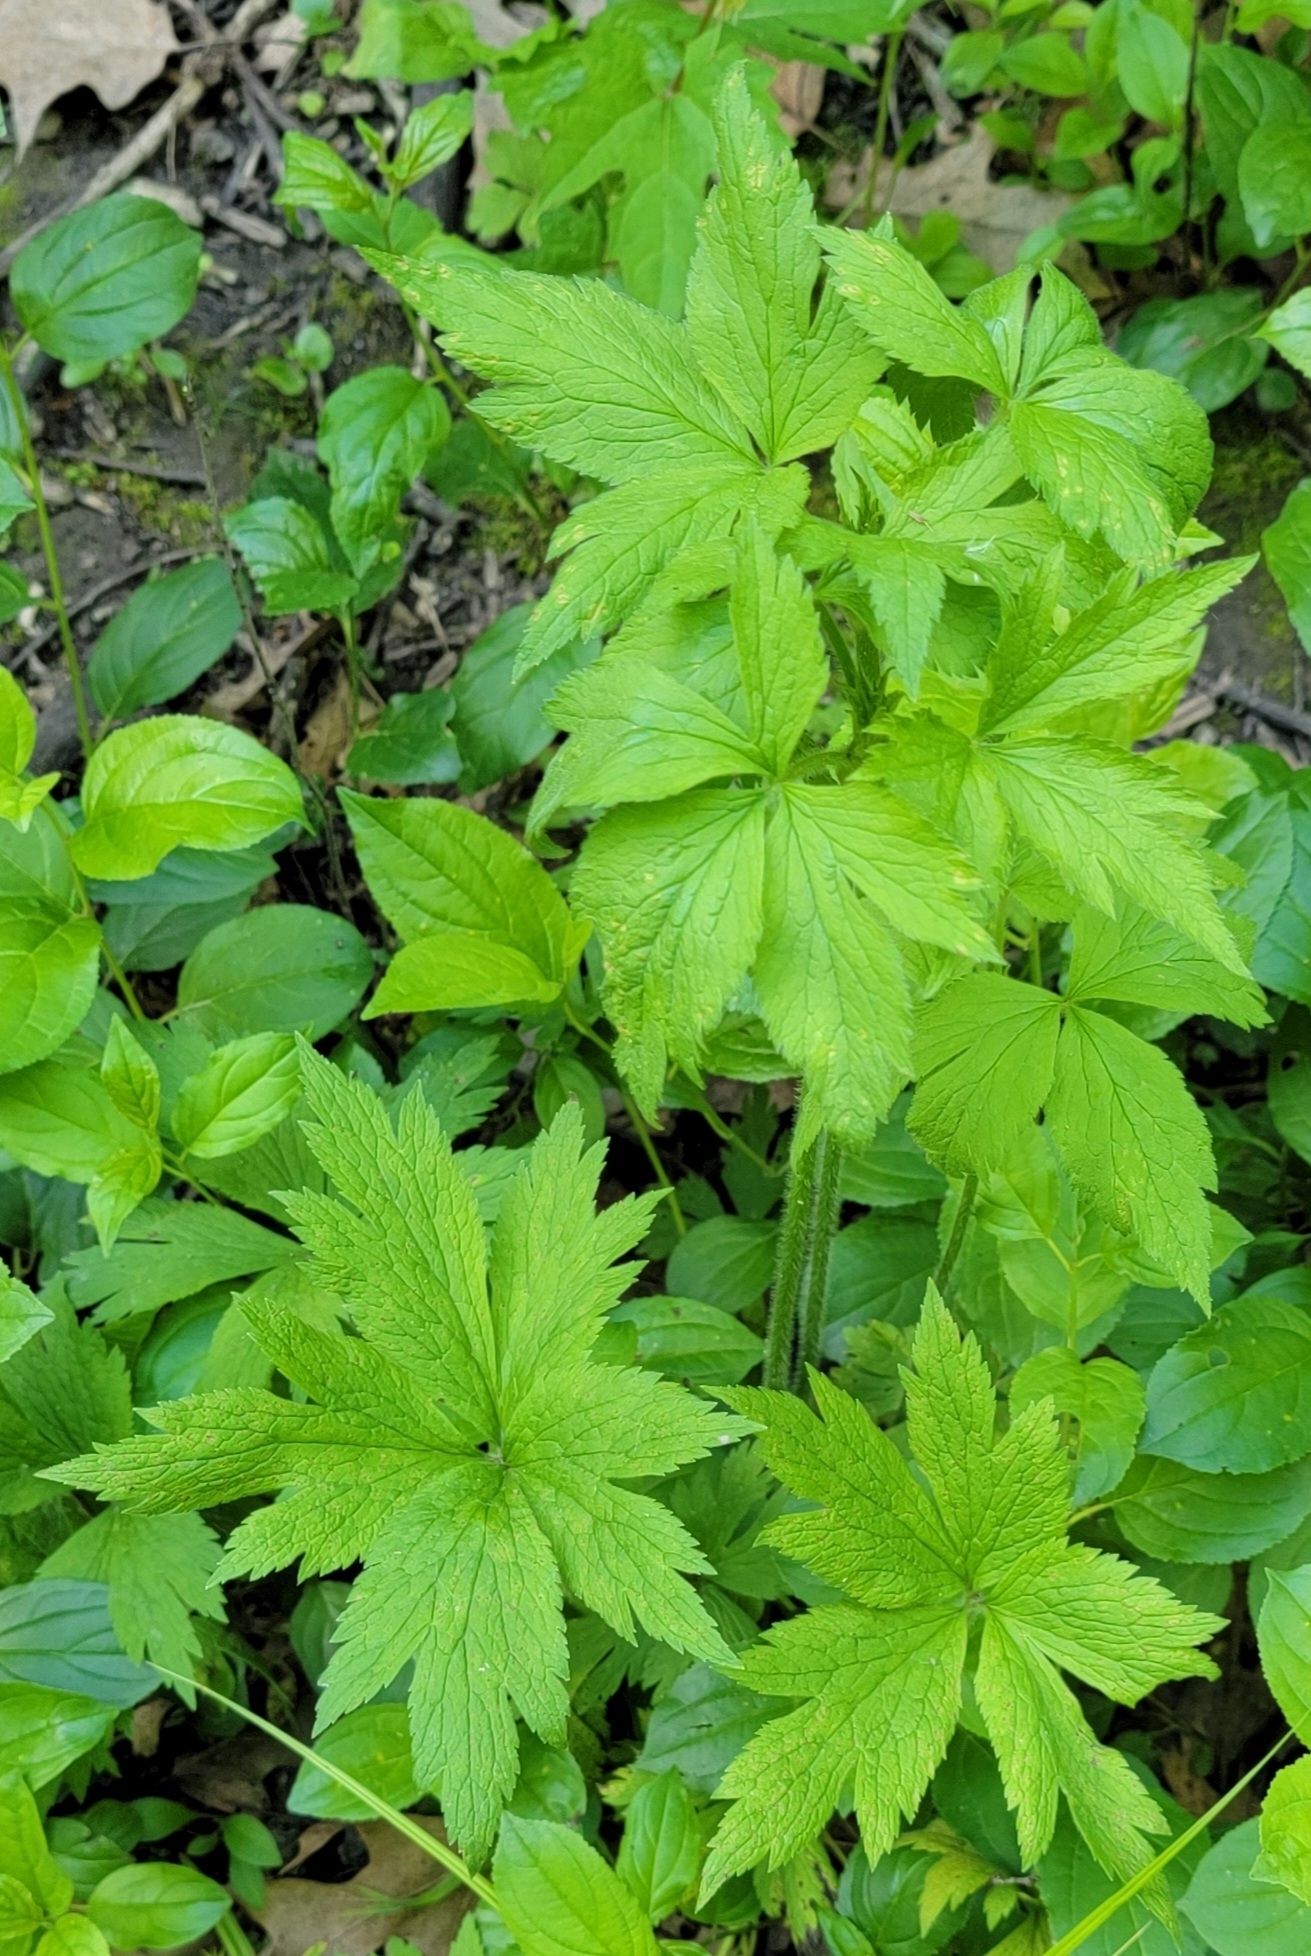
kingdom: Plantae
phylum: Tracheophyta
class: Magnoliopsida
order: Ranunculales
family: Ranunculaceae
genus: Anemone
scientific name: Anemone virginiana
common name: Tall anemone
